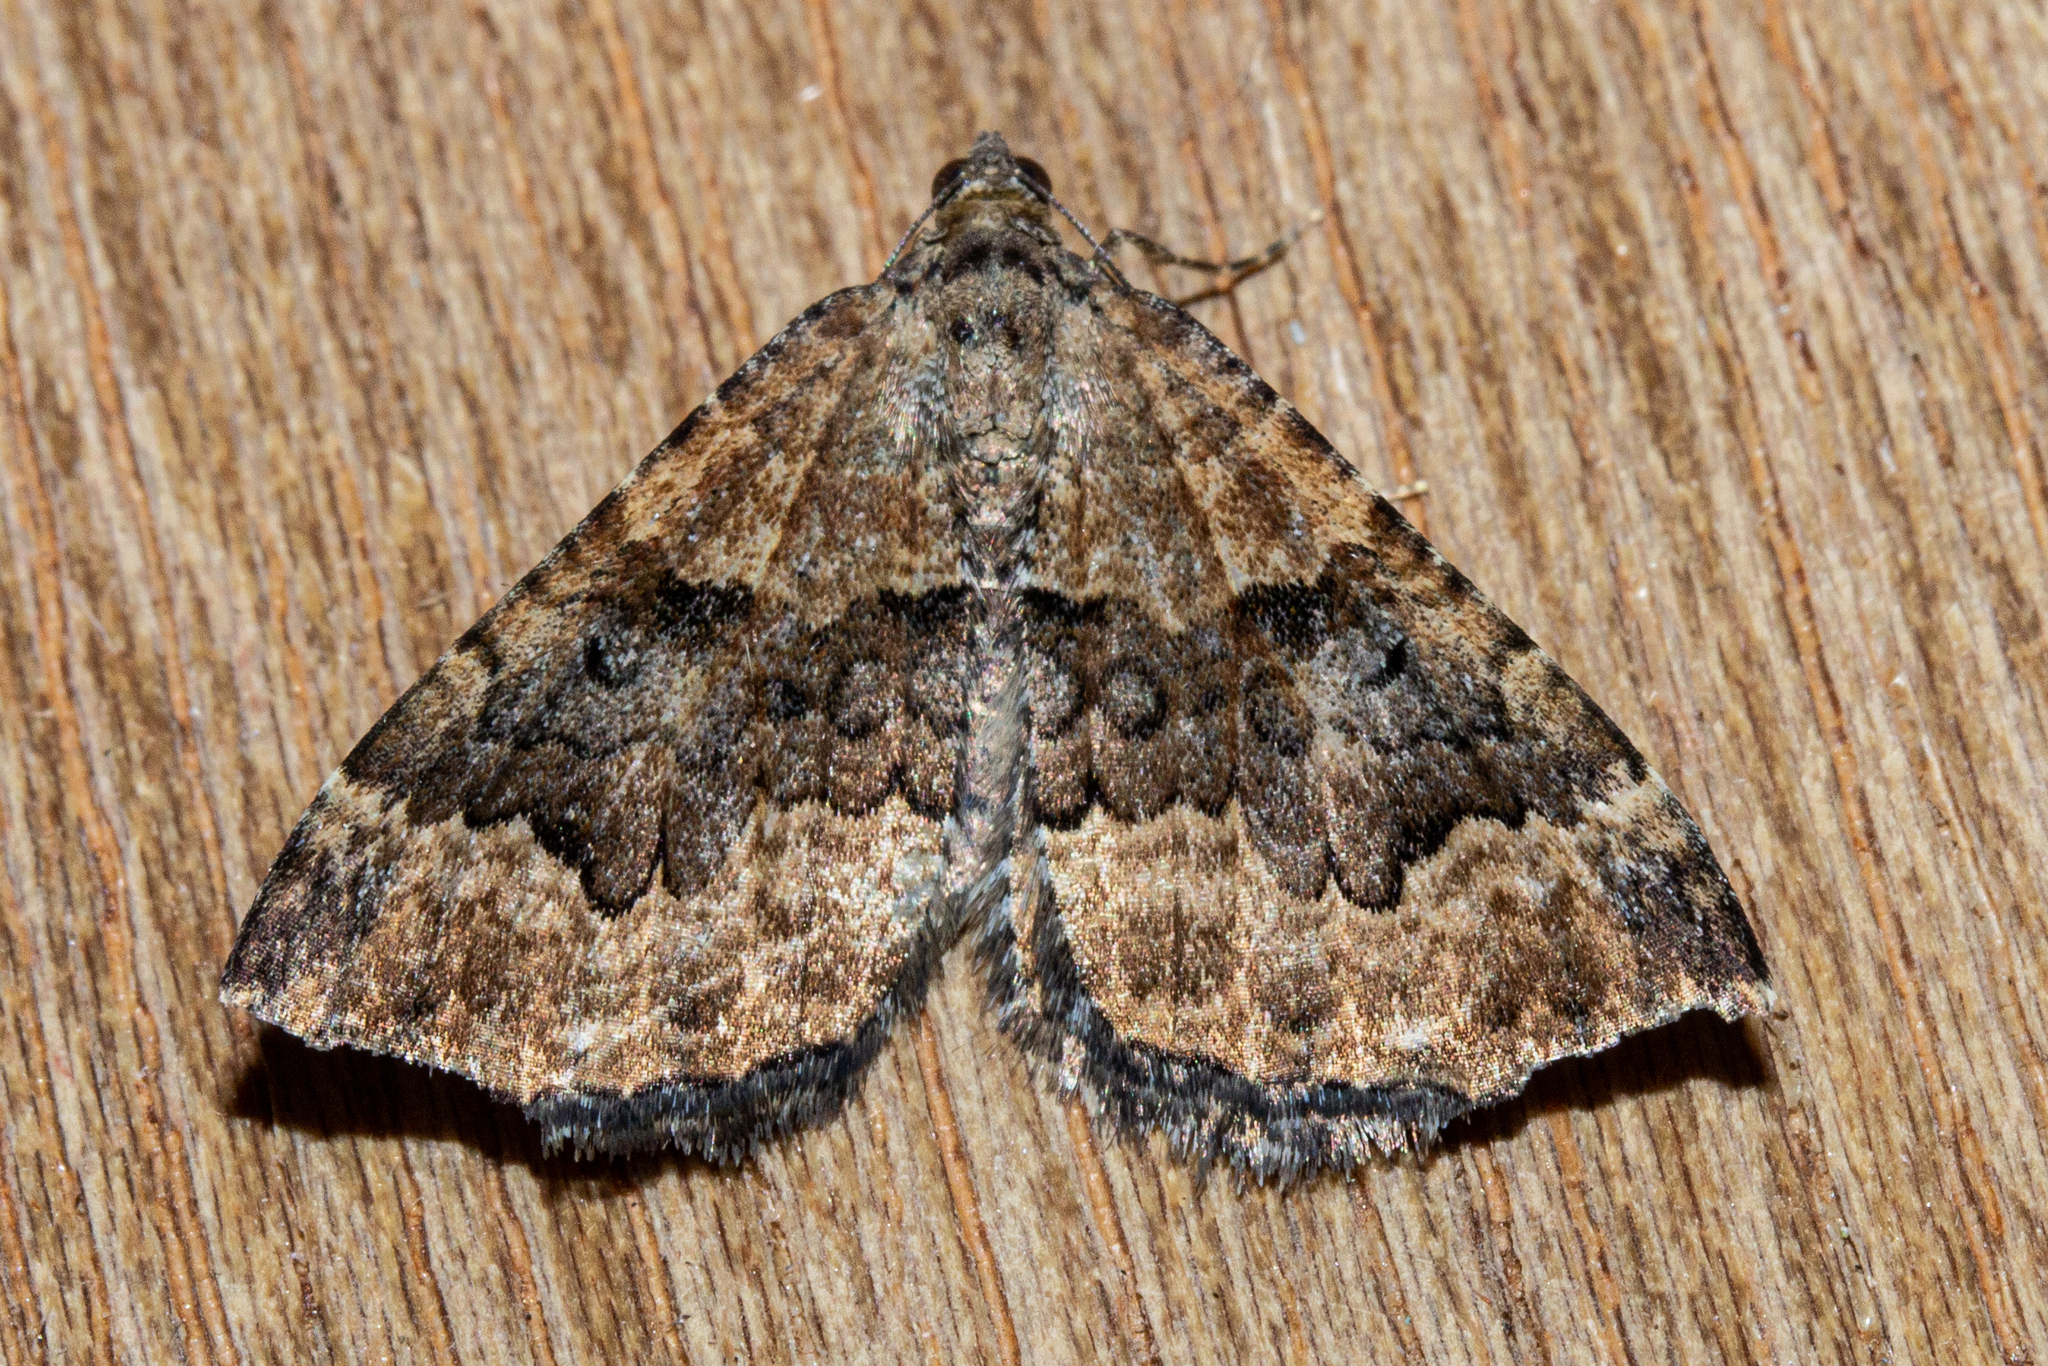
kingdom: Animalia
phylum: Arthropoda
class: Insecta
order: Lepidoptera
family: Geometridae
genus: Hydriomena
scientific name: Hydriomena hemizona
